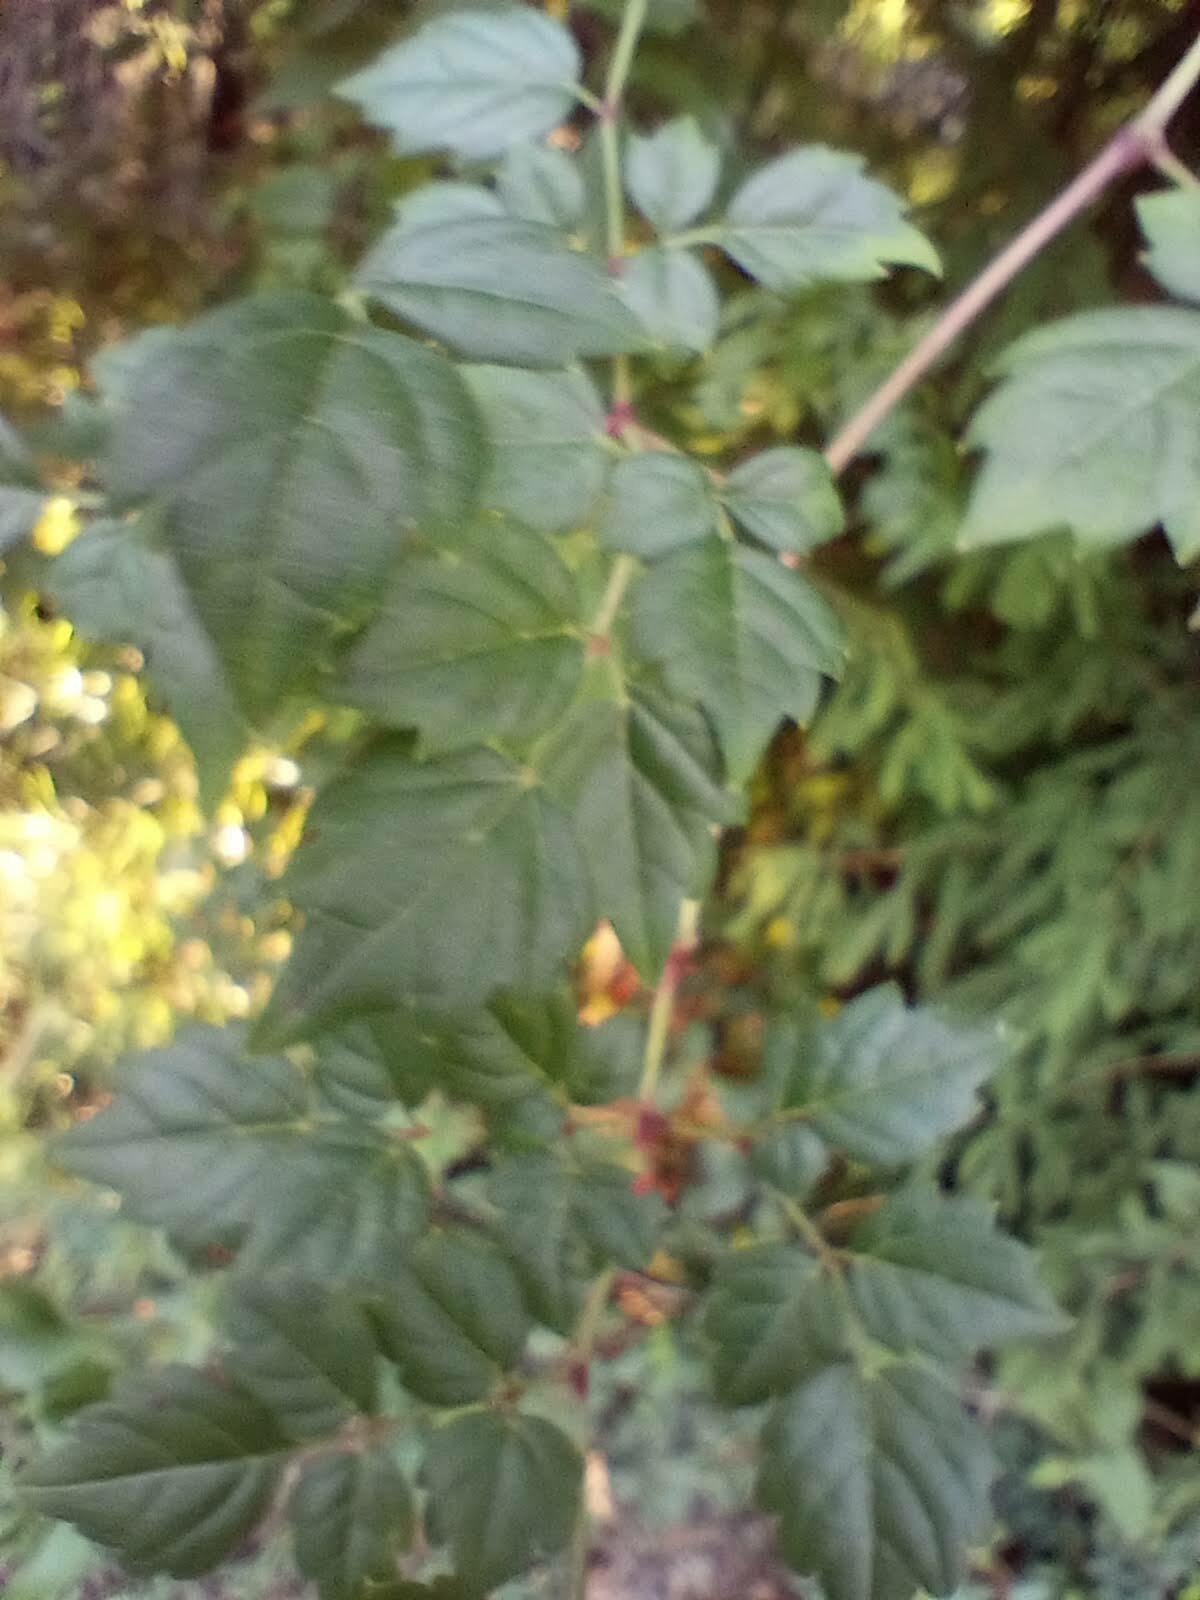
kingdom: Plantae
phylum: Tracheophyta
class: Magnoliopsida
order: Vitales
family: Vitaceae
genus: Nekemias
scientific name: Nekemias arborea
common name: Peppervine
